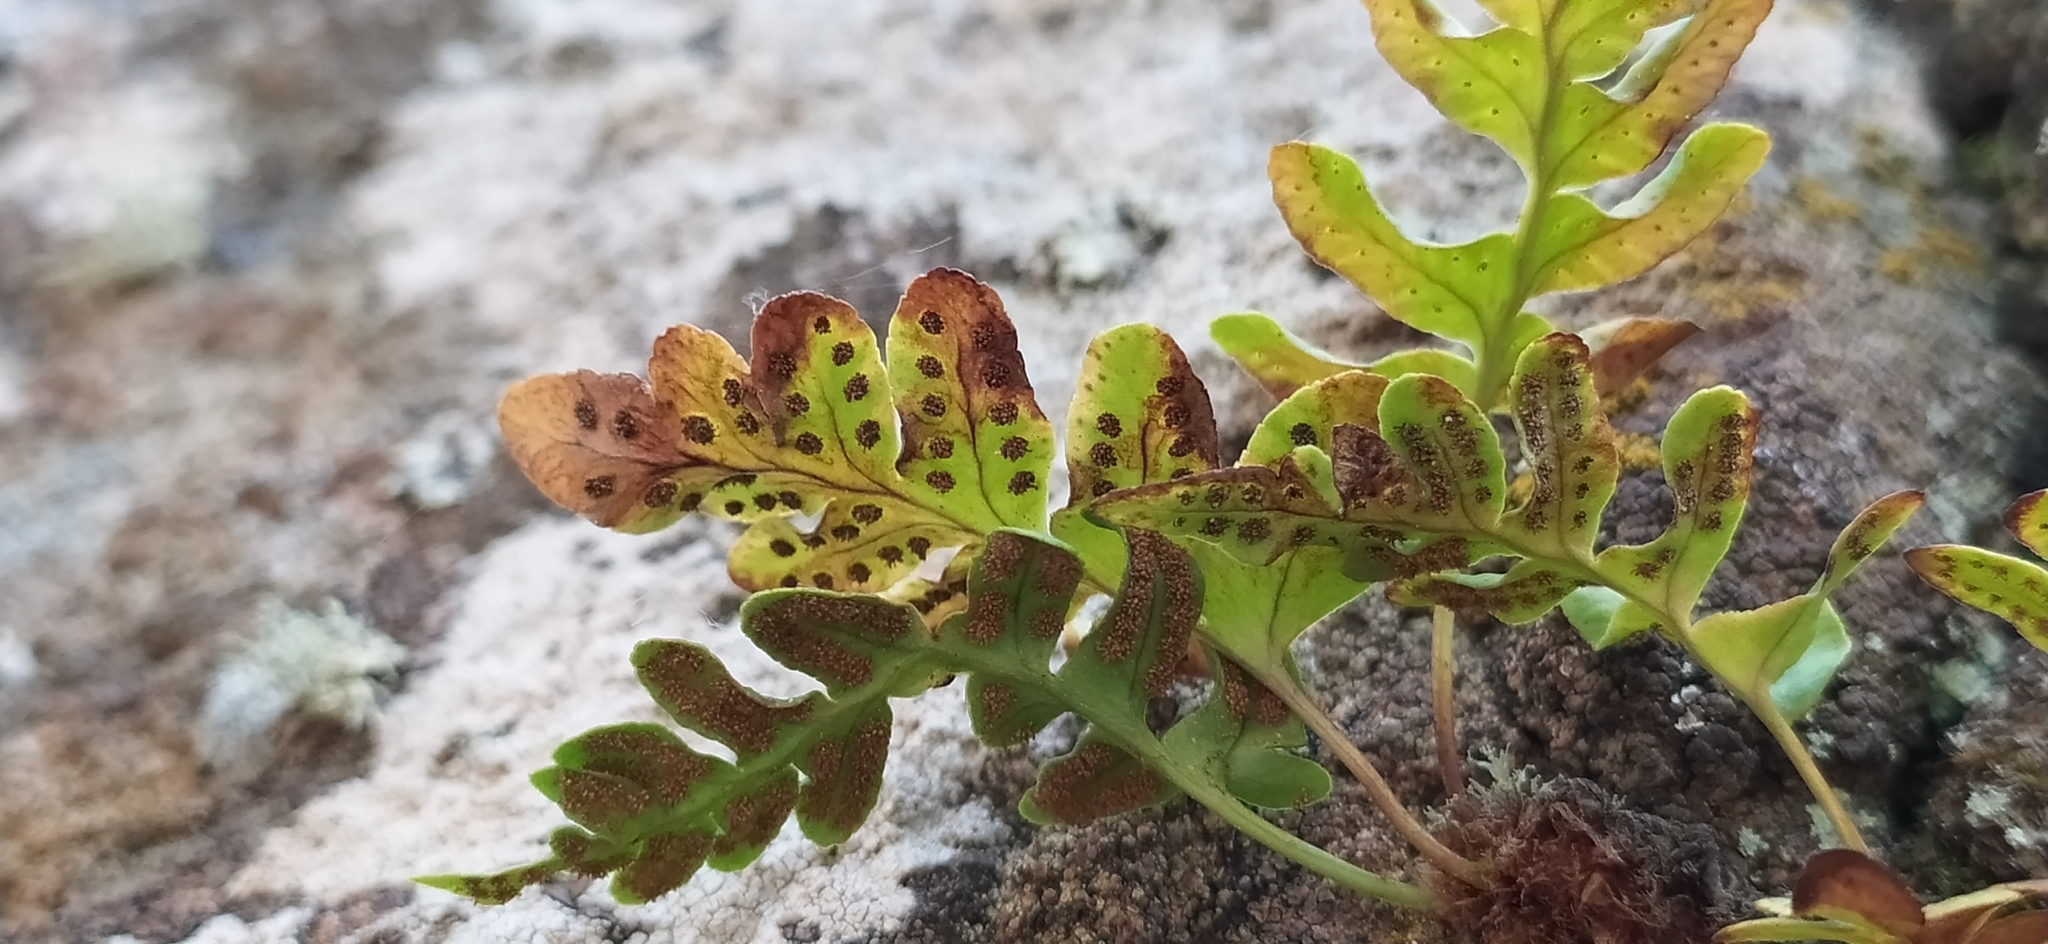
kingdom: Plantae
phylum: Tracheophyta
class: Polypodiopsida
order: Polypodiales
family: Polypodiaceae
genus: Polypodium
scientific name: Polypodium vulgare
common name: Common polypody
